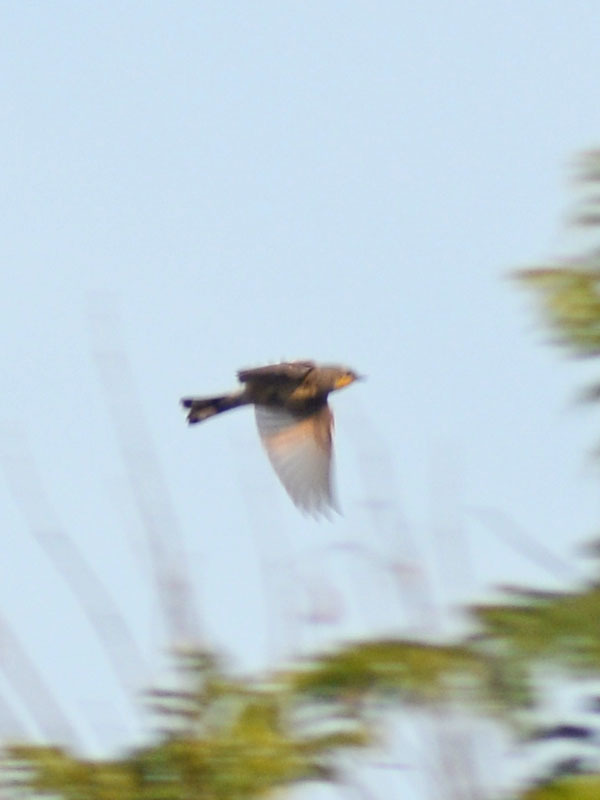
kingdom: Animalia
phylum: Chordata
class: Aves
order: Passeriformes
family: Parulidae
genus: Setophaga
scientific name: Setophaga auduboni
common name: Audubon's warbler
